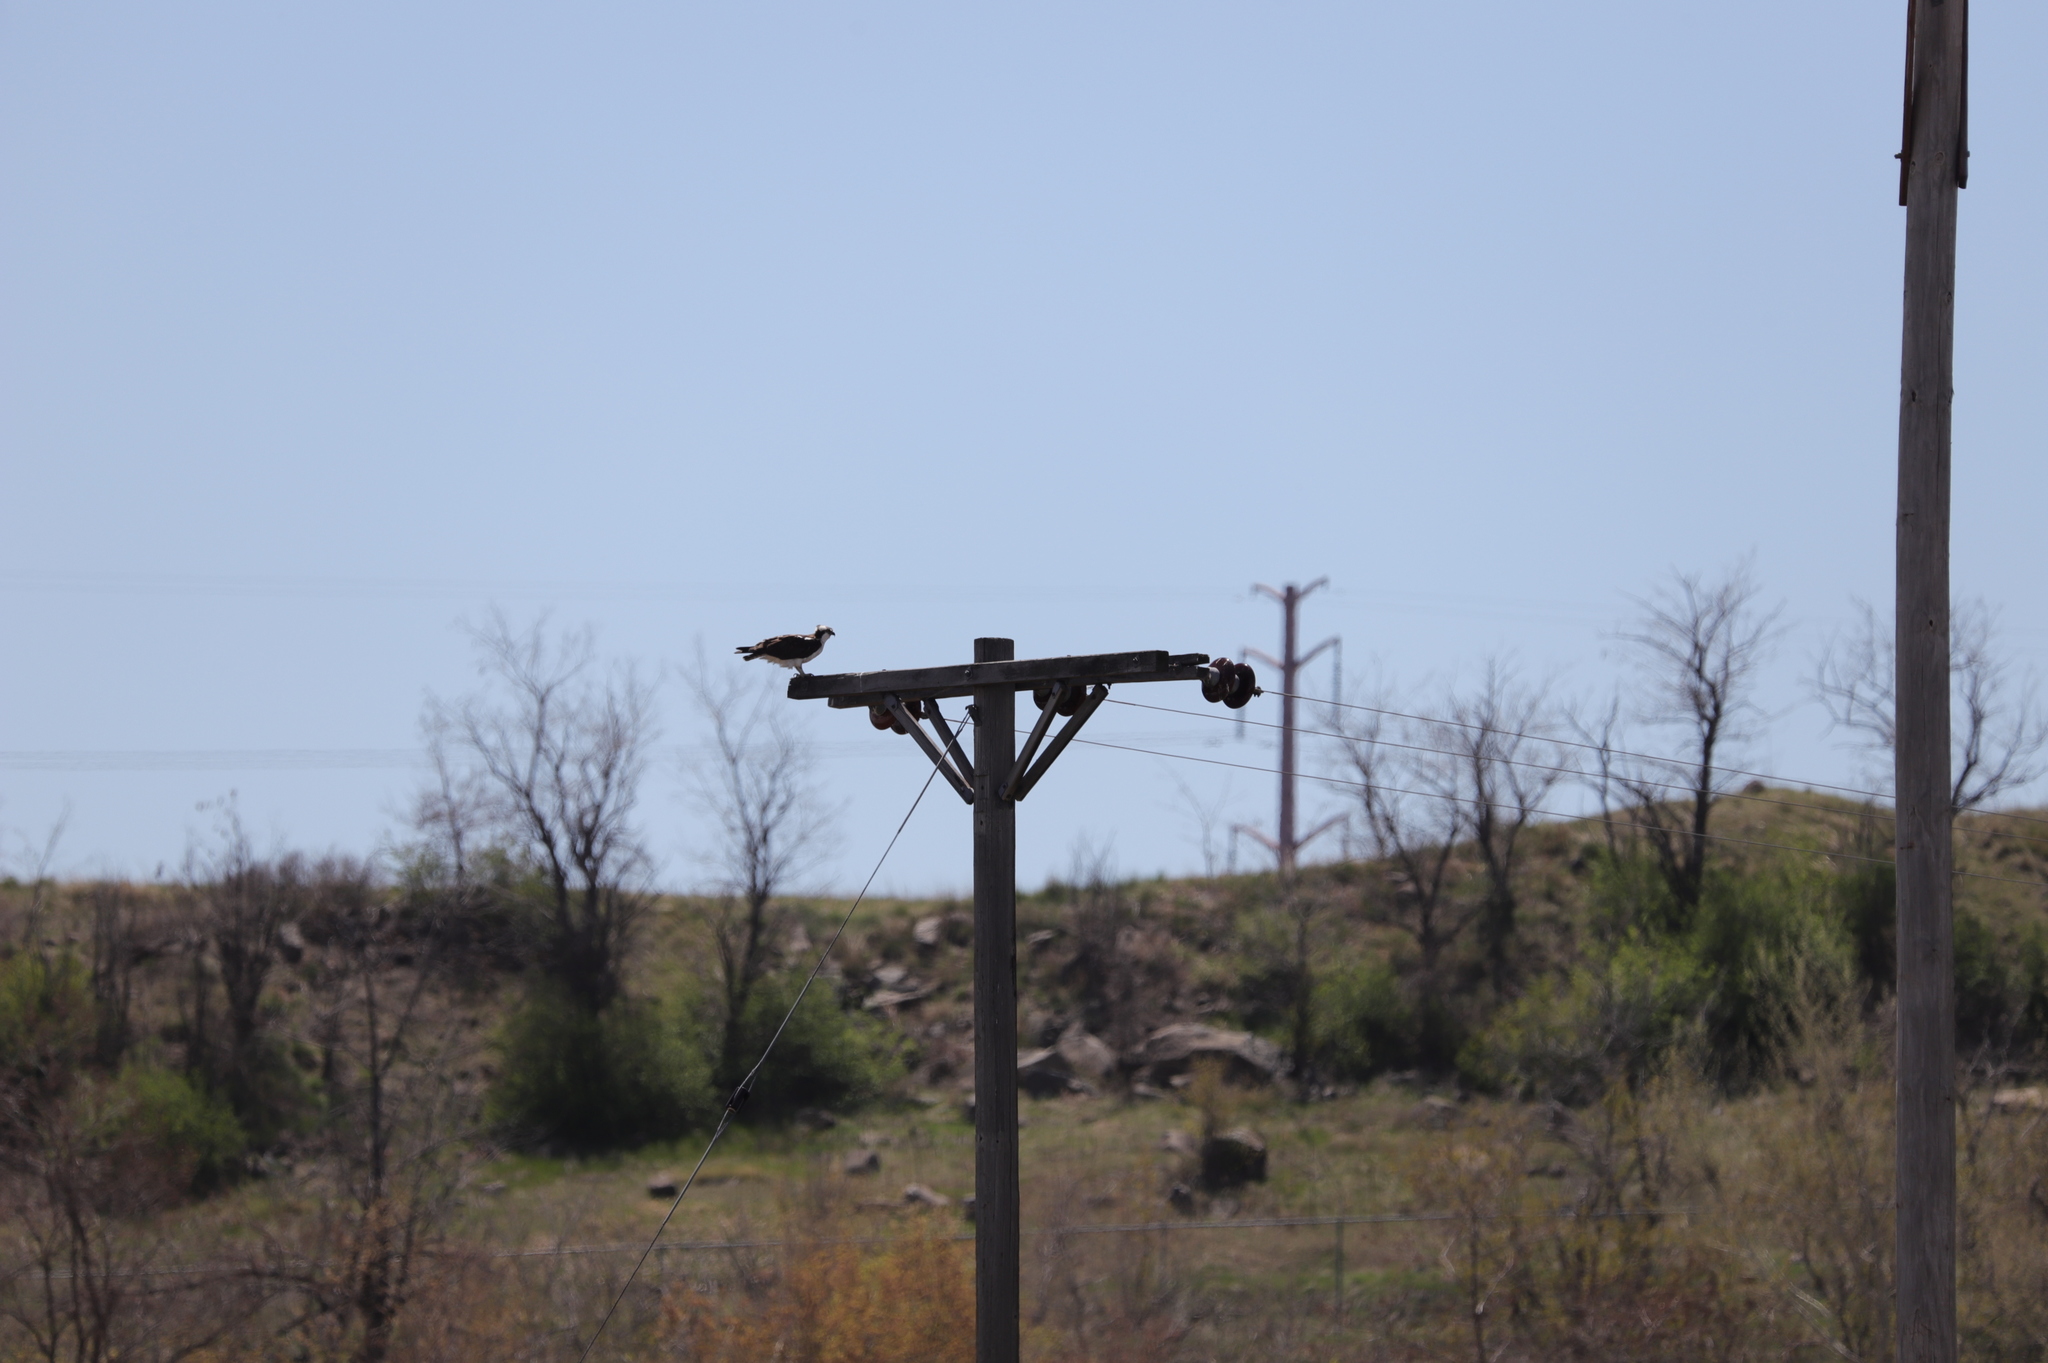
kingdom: Animalia
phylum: Chordata
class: Aves
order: Accipitriformes
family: Pandionidae
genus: Pandion
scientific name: Pandion haliaetus
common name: Osprey
